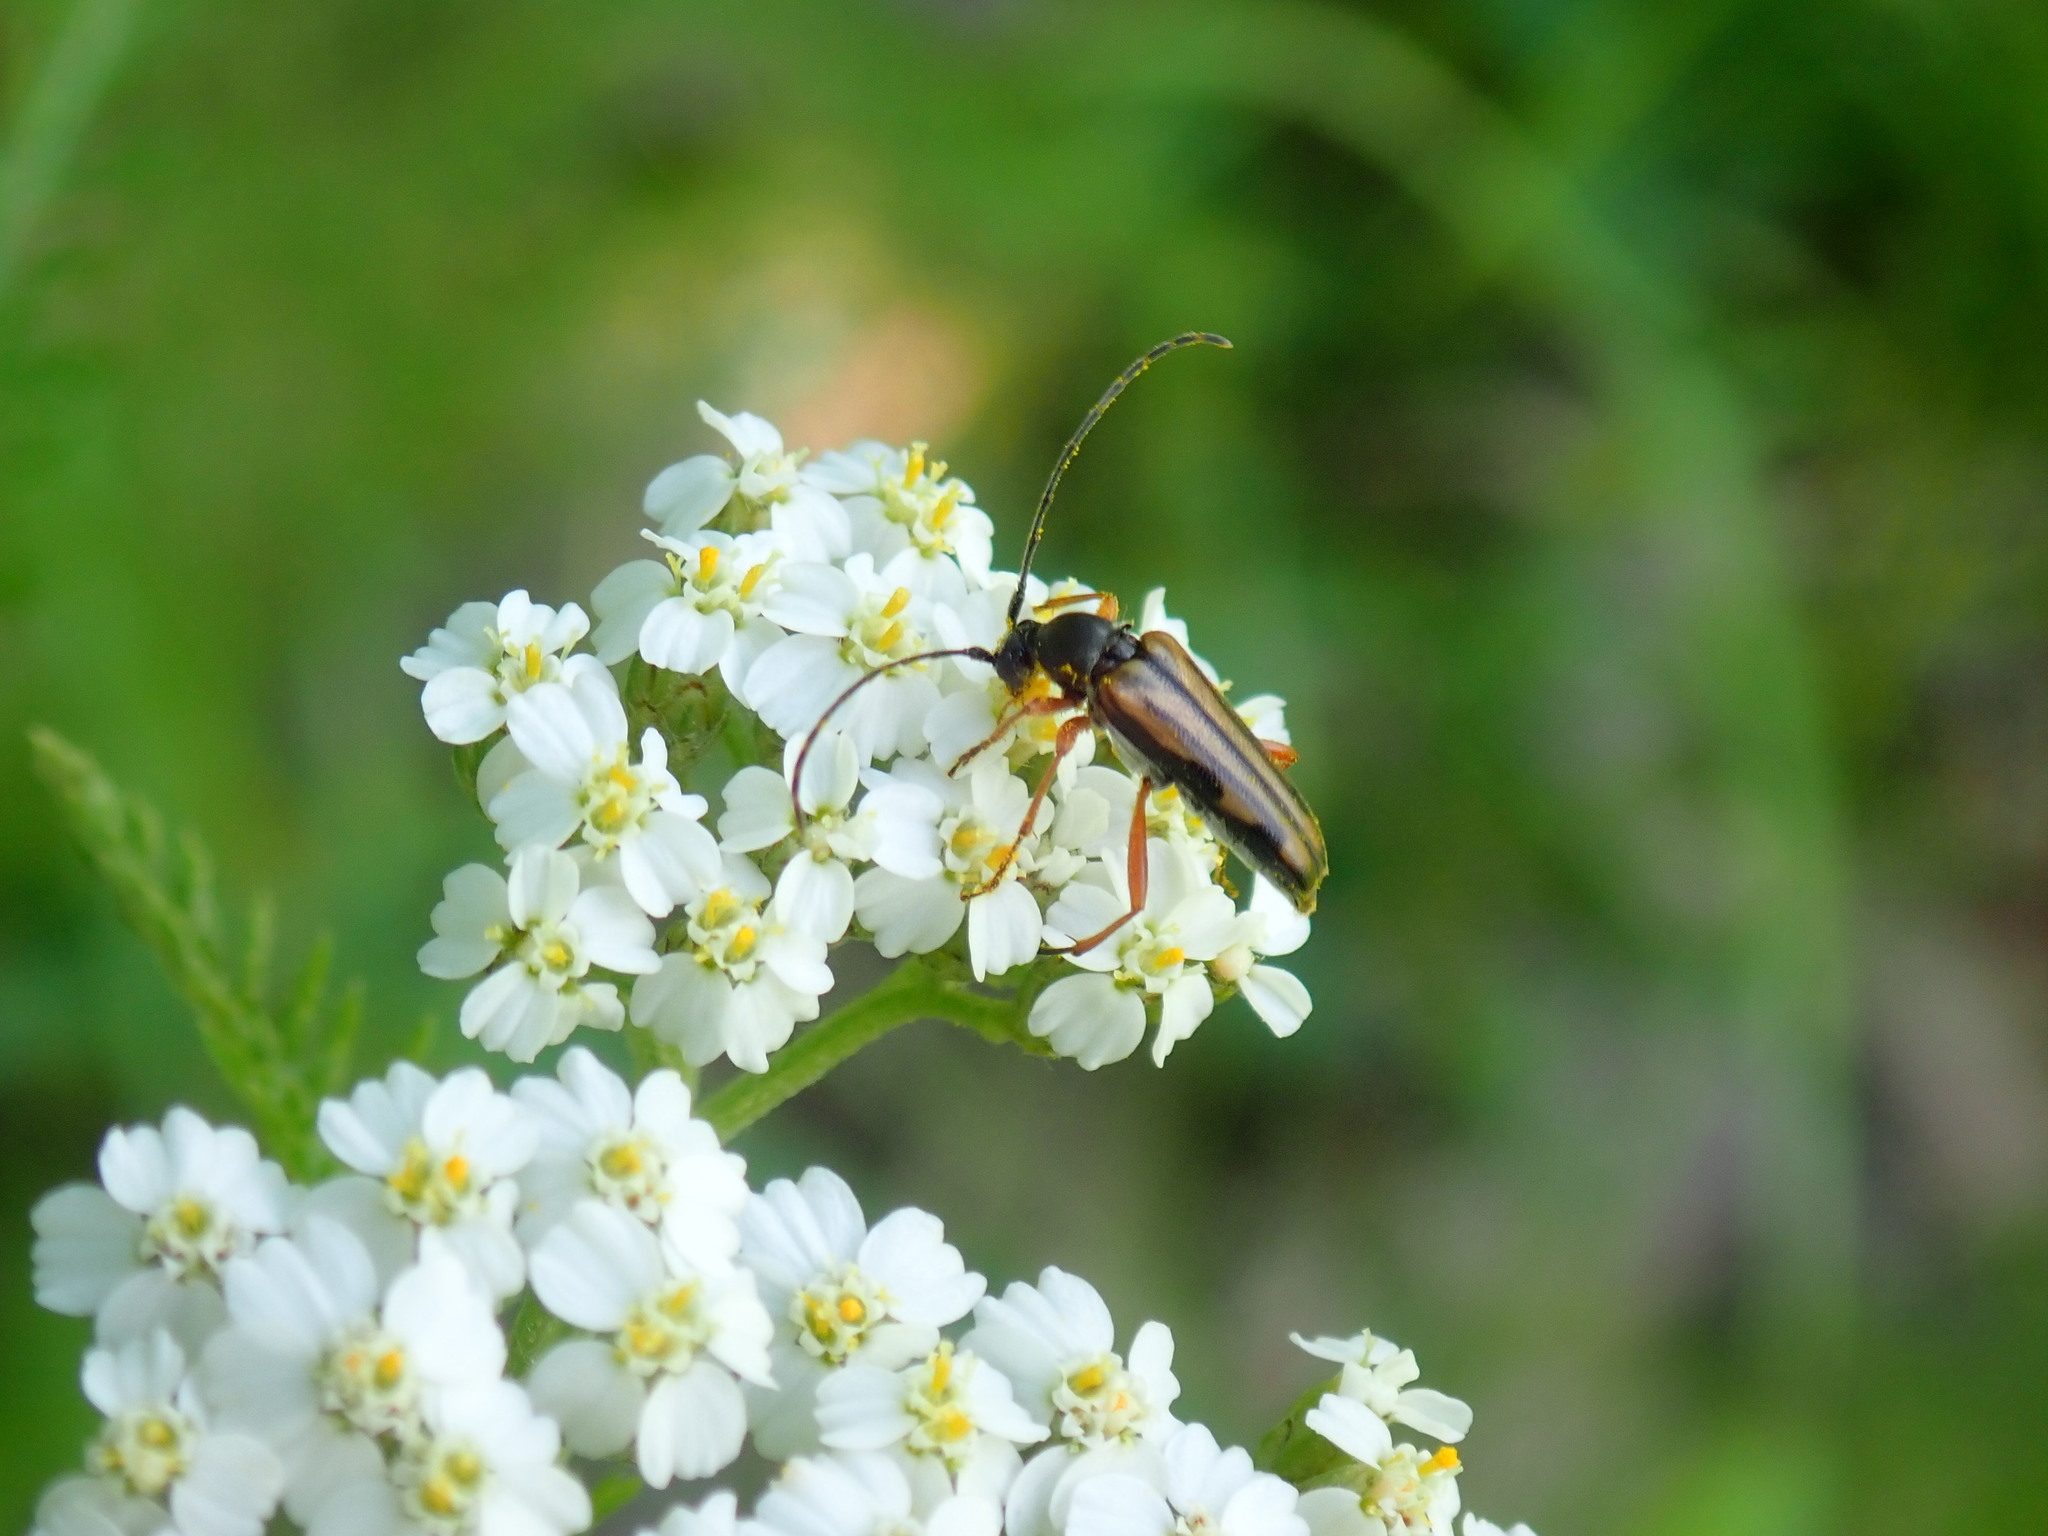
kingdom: Animalia
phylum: Arthropoda
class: Insecta
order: Coleoptera
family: Cerambycidae
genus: Analeptura
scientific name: Analeptura lineola
